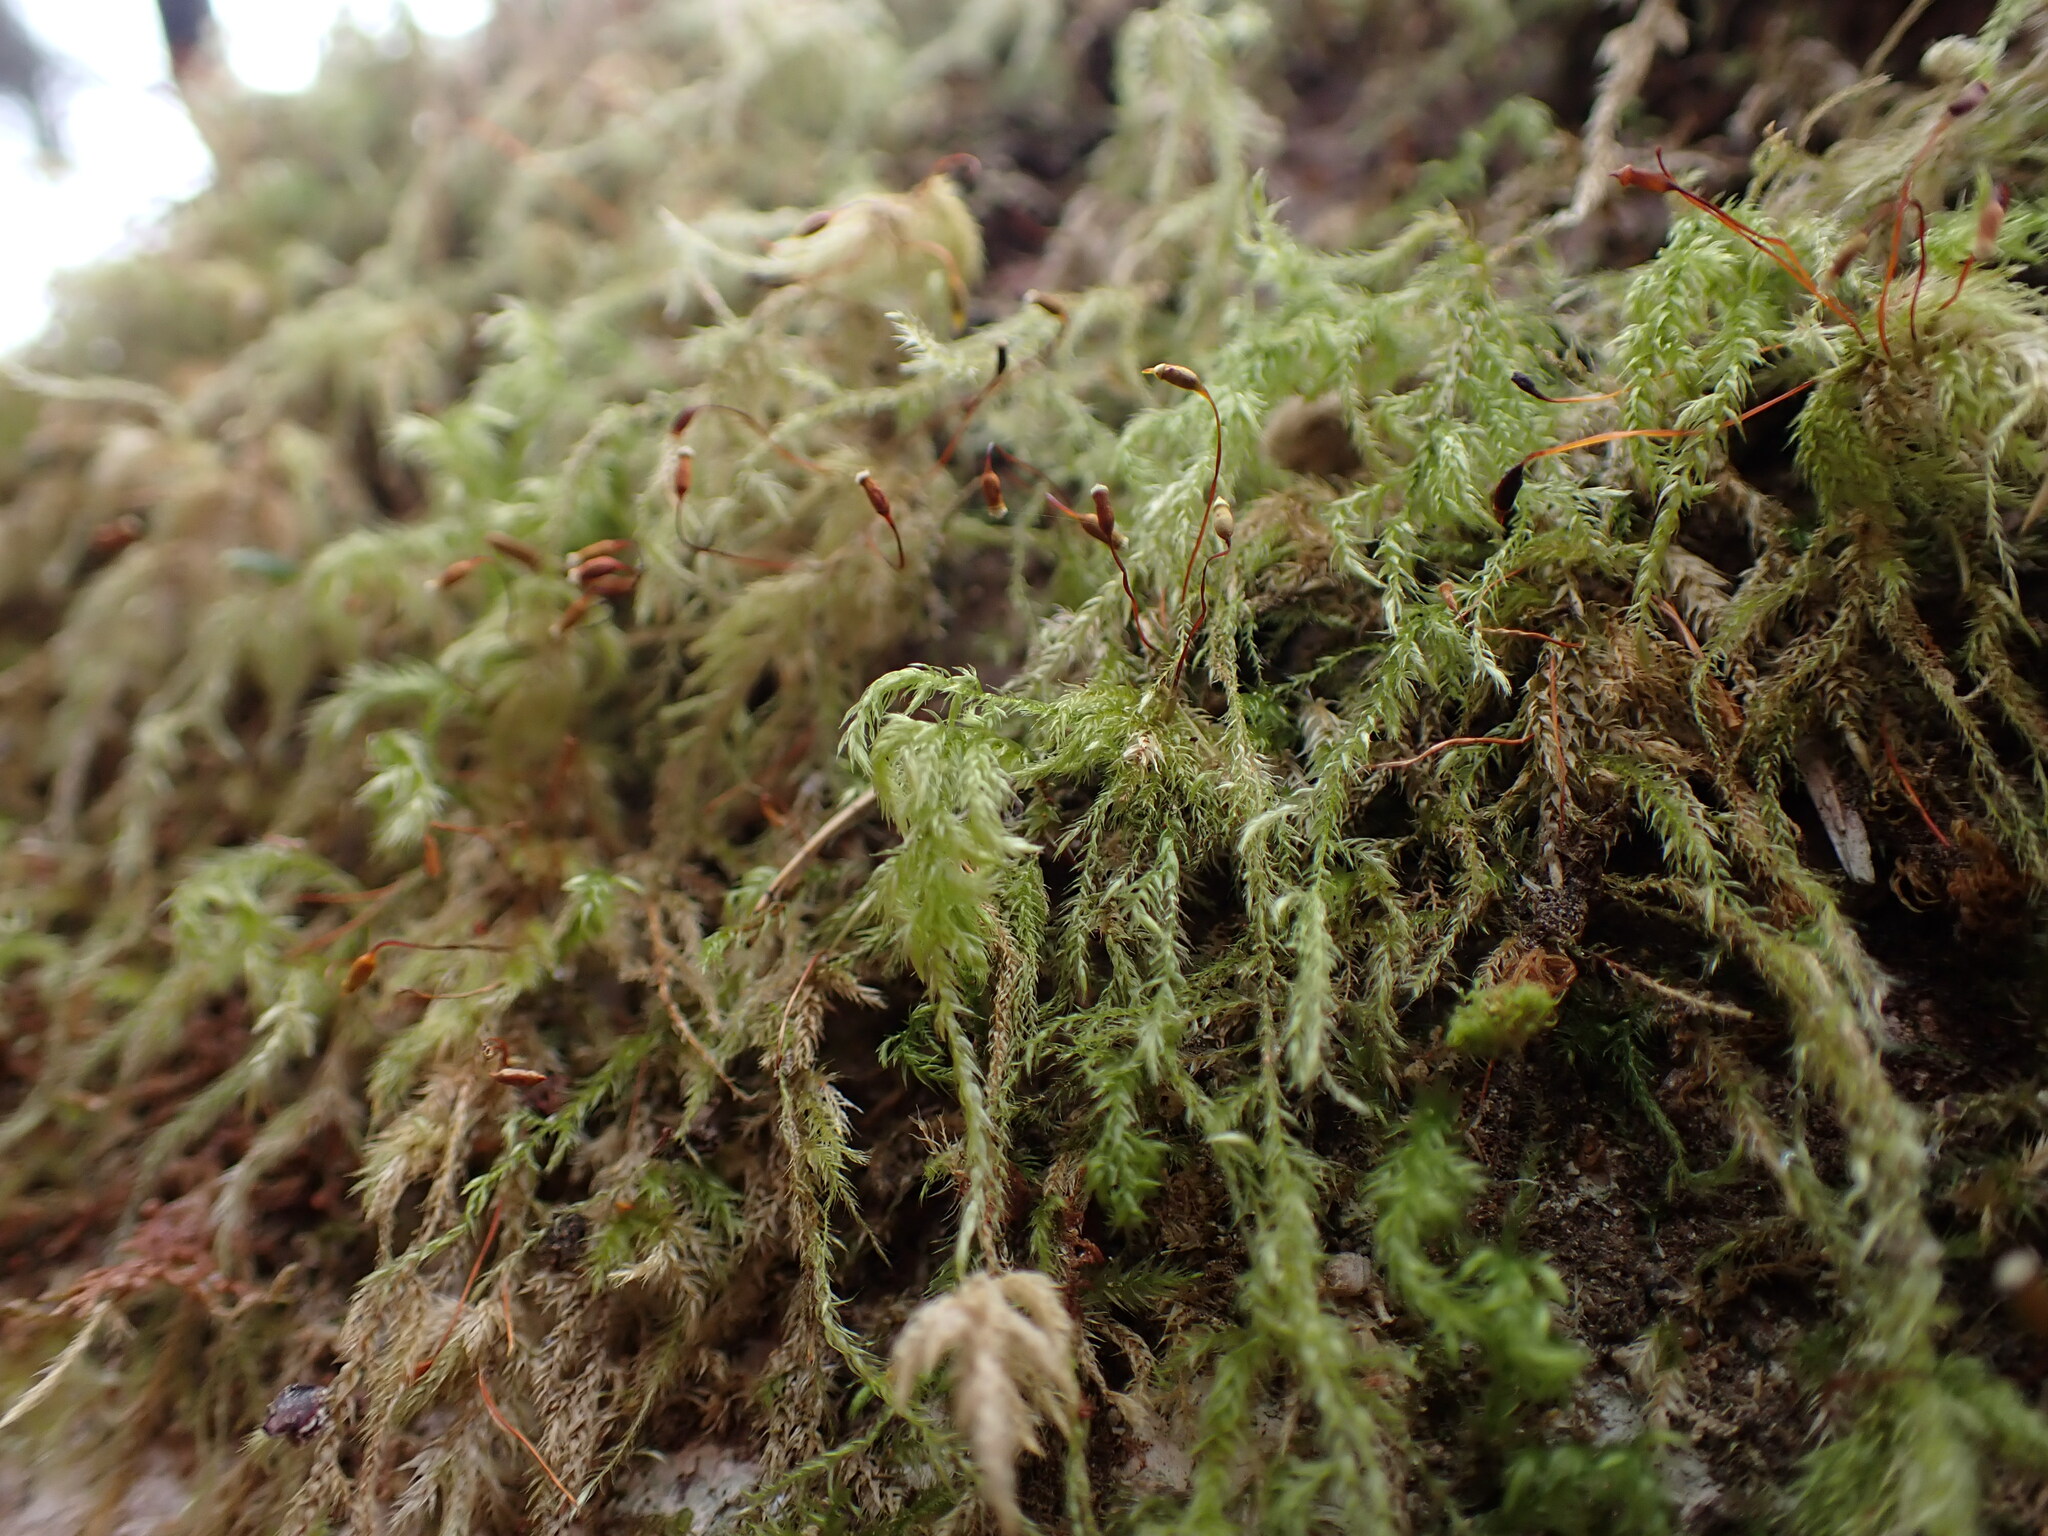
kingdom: Plantae
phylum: Bryophyta
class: Bryopsida
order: Hypnales
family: Lembophyllaceae
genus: Pseudisothecium
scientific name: Pseudisothecium stoloniferum
